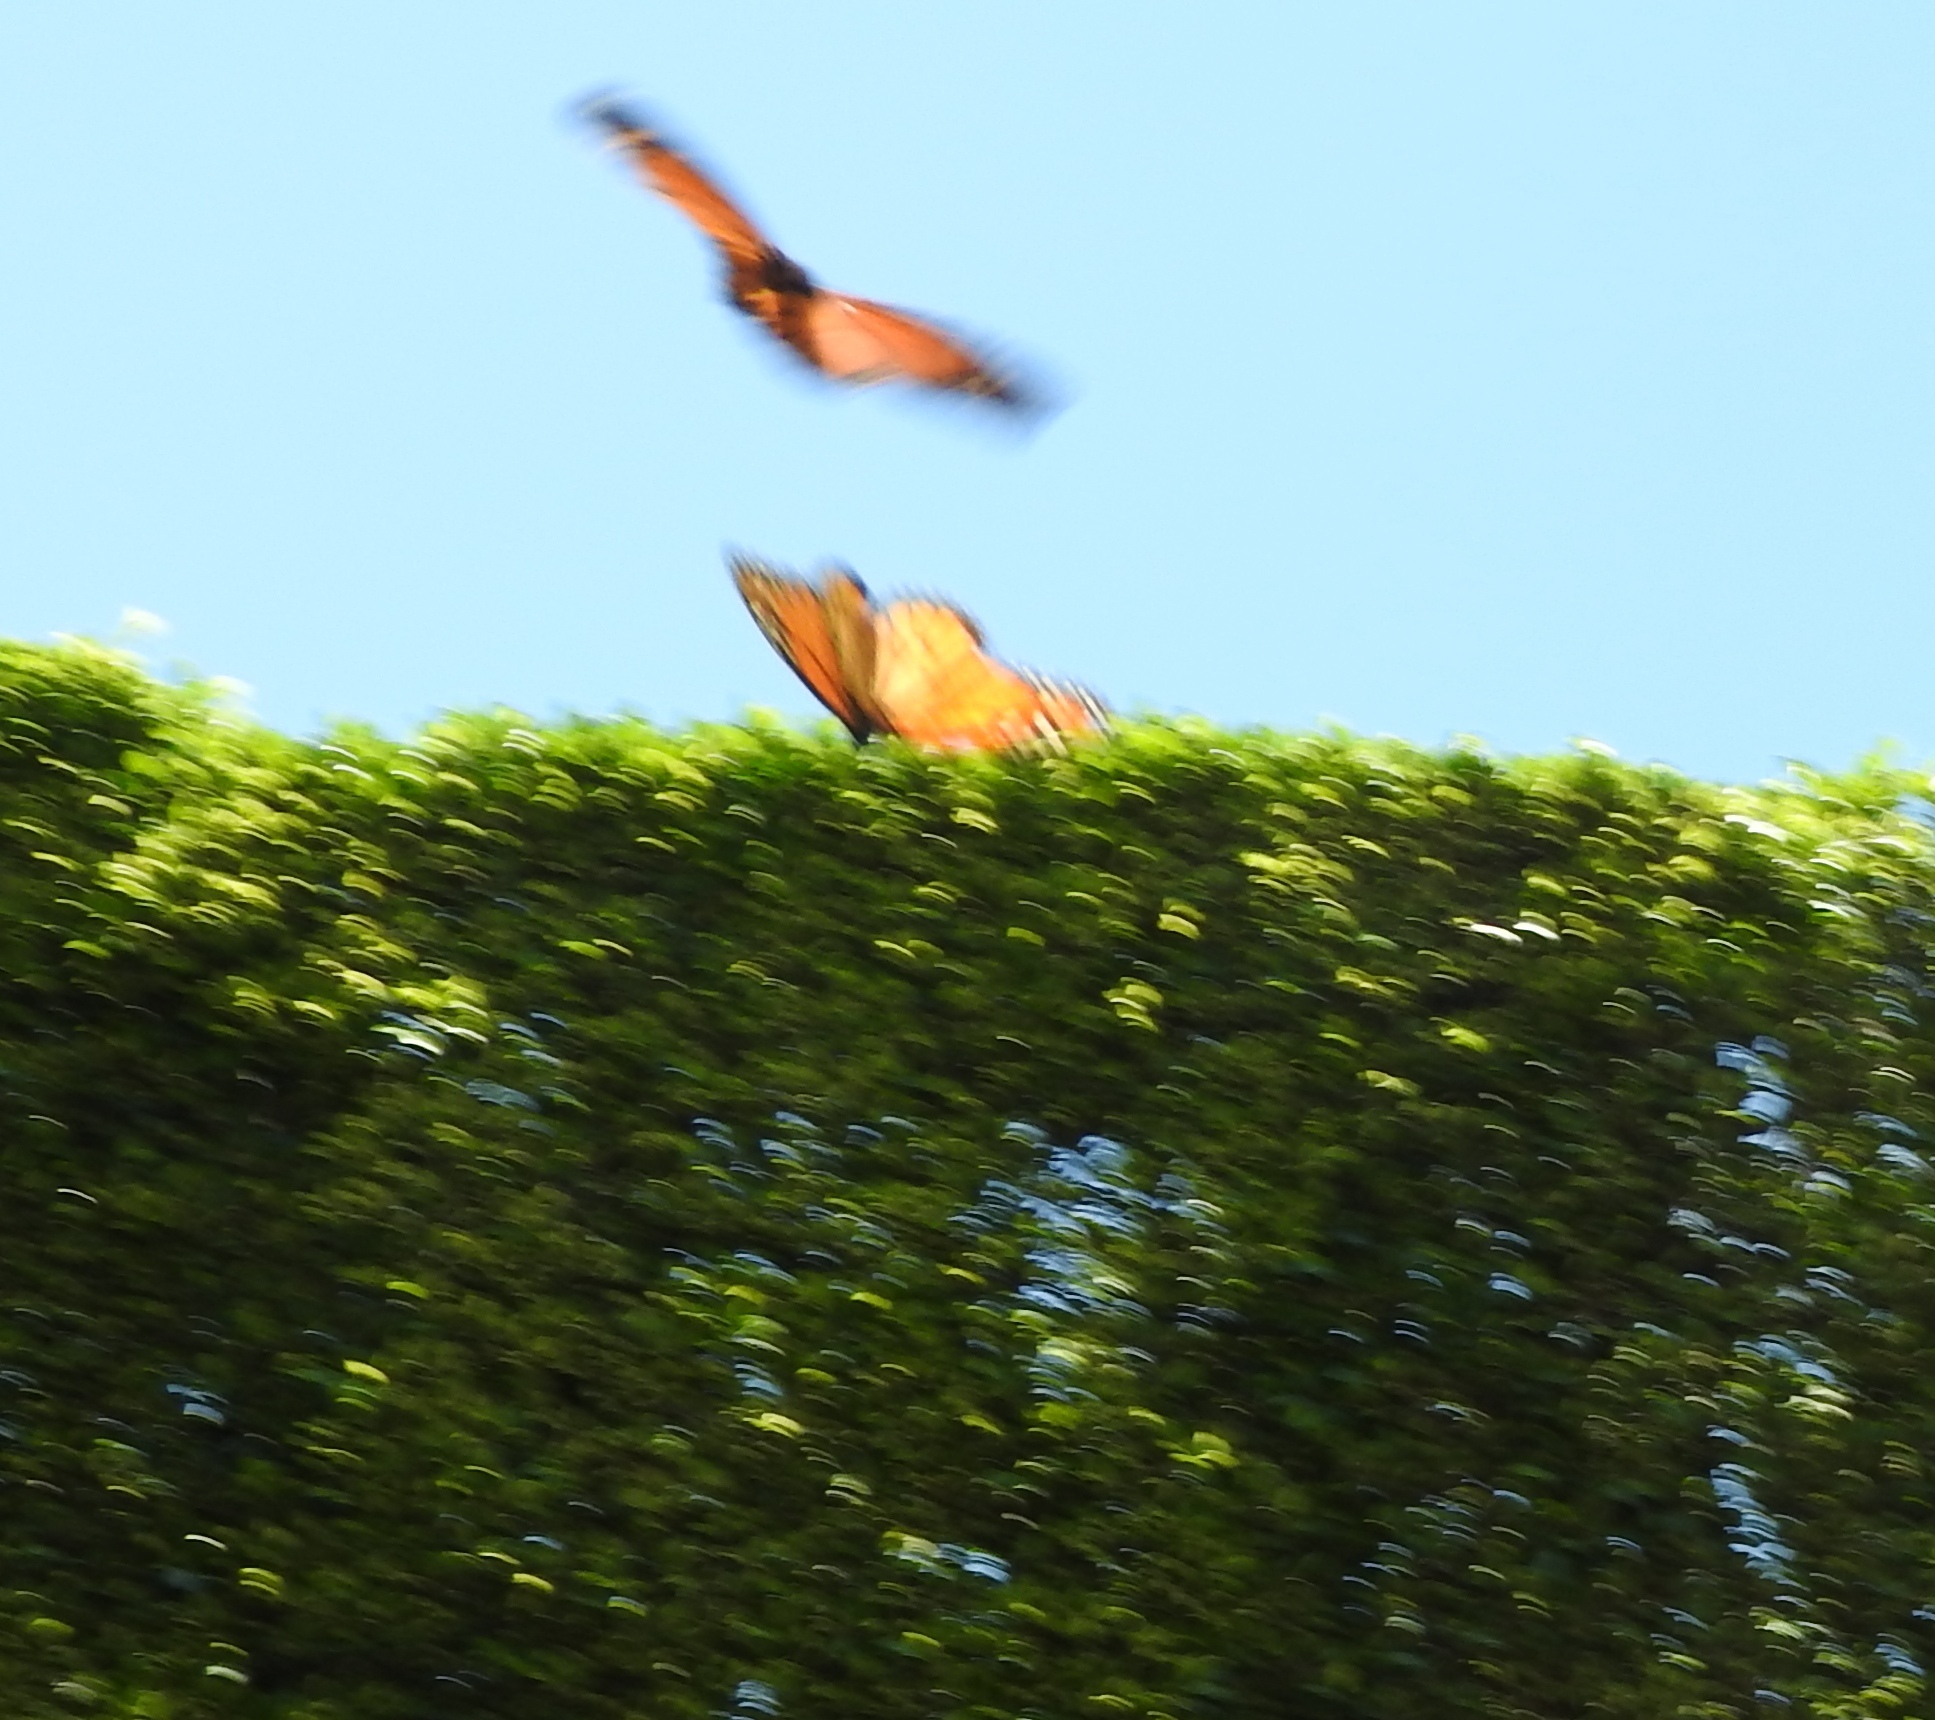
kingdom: Animalia
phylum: Arthropoda
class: Insecta
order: Lepidoptera
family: Nymphalidae
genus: Danaus
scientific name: Danaus plexippus
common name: Monarch
